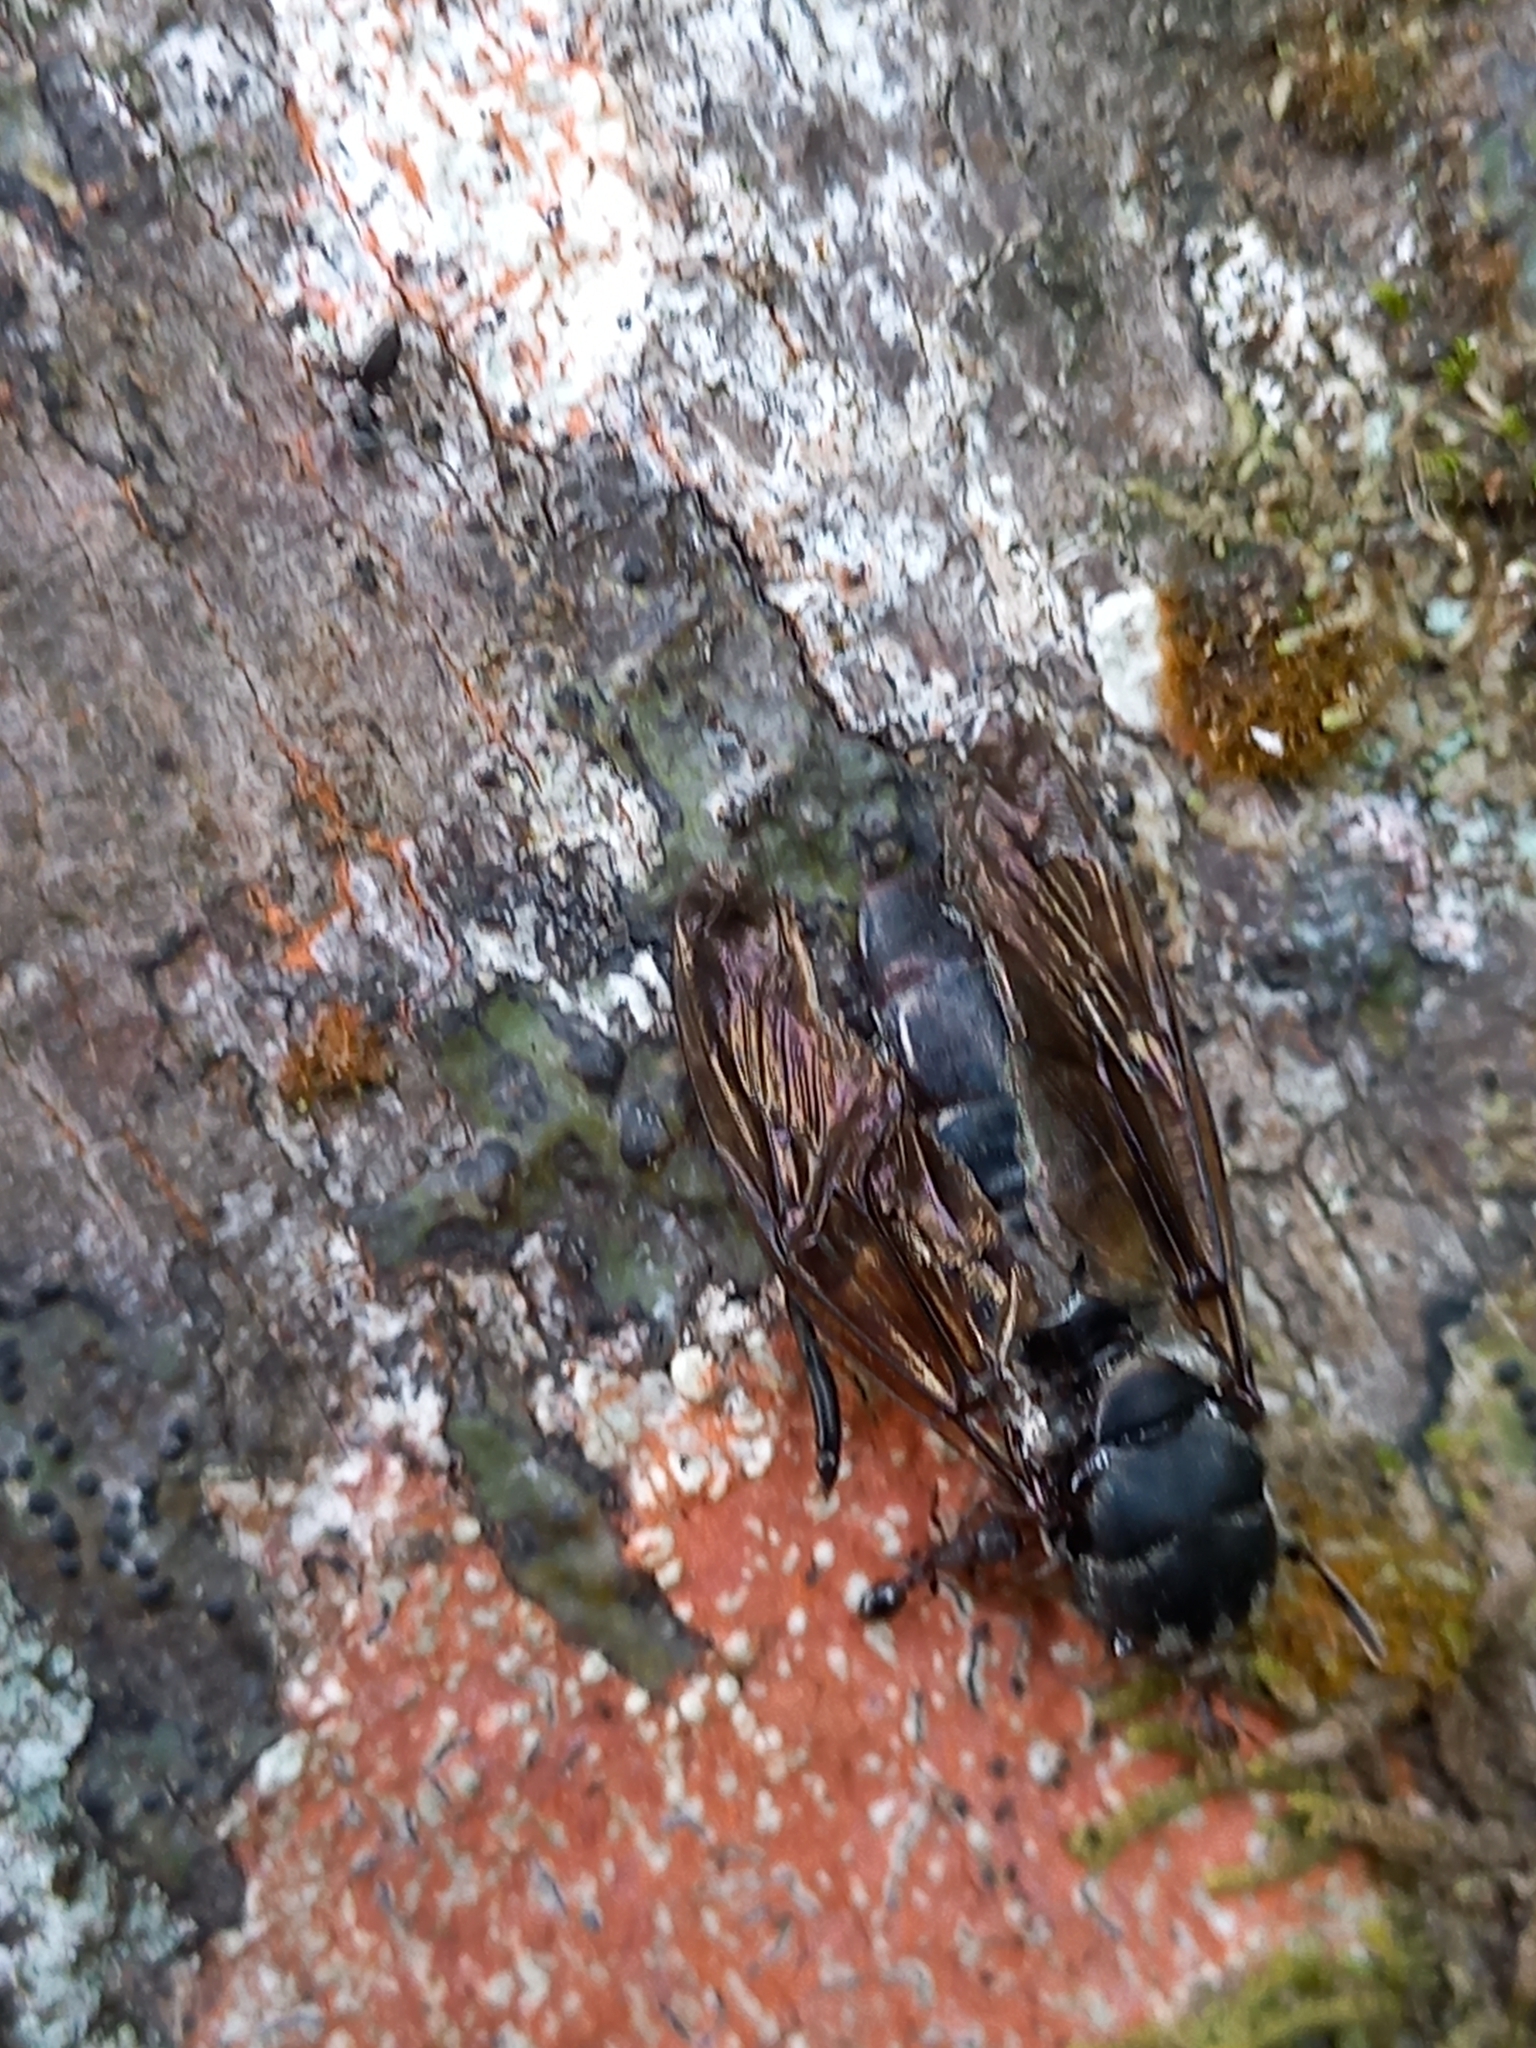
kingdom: Animalia
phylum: Arthropoda
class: Insecta
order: Diptera
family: Stratiomyidae
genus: Hermetia
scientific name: Hermetia illucens
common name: Black soldier fly
